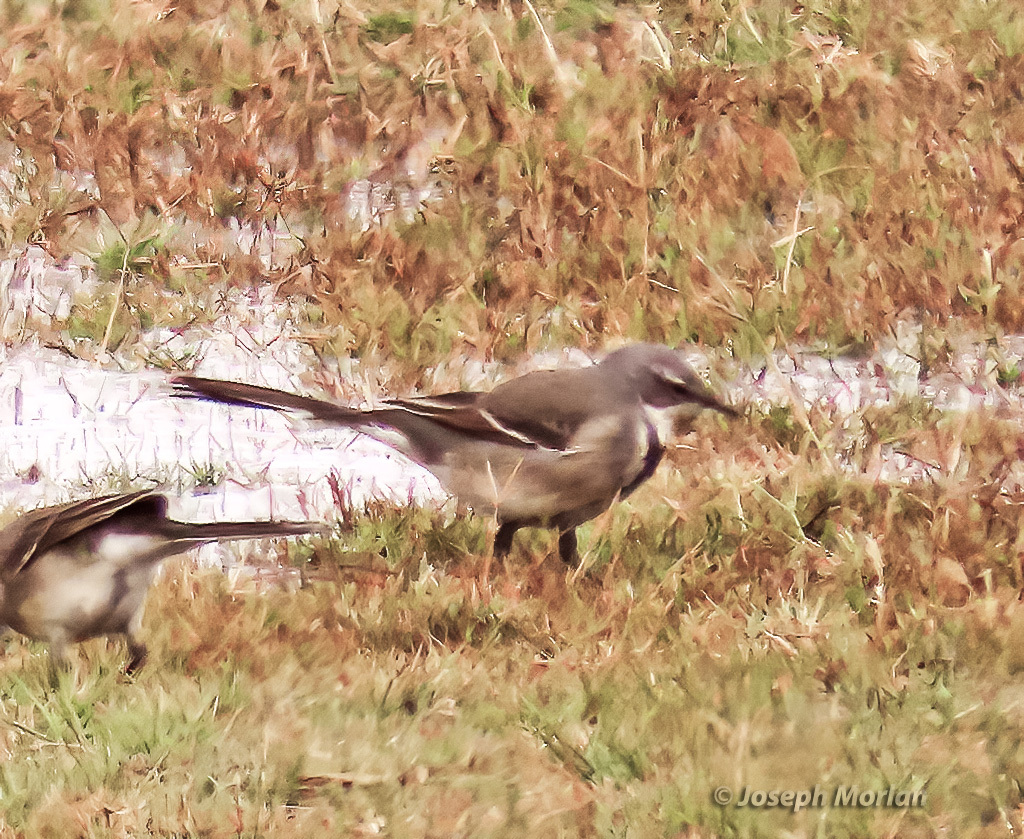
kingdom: Animalia
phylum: Chordata
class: Aves
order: Passeriformes
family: Motacillidae
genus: Motacilla
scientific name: Motacilla capensis
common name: Cape wagtail
